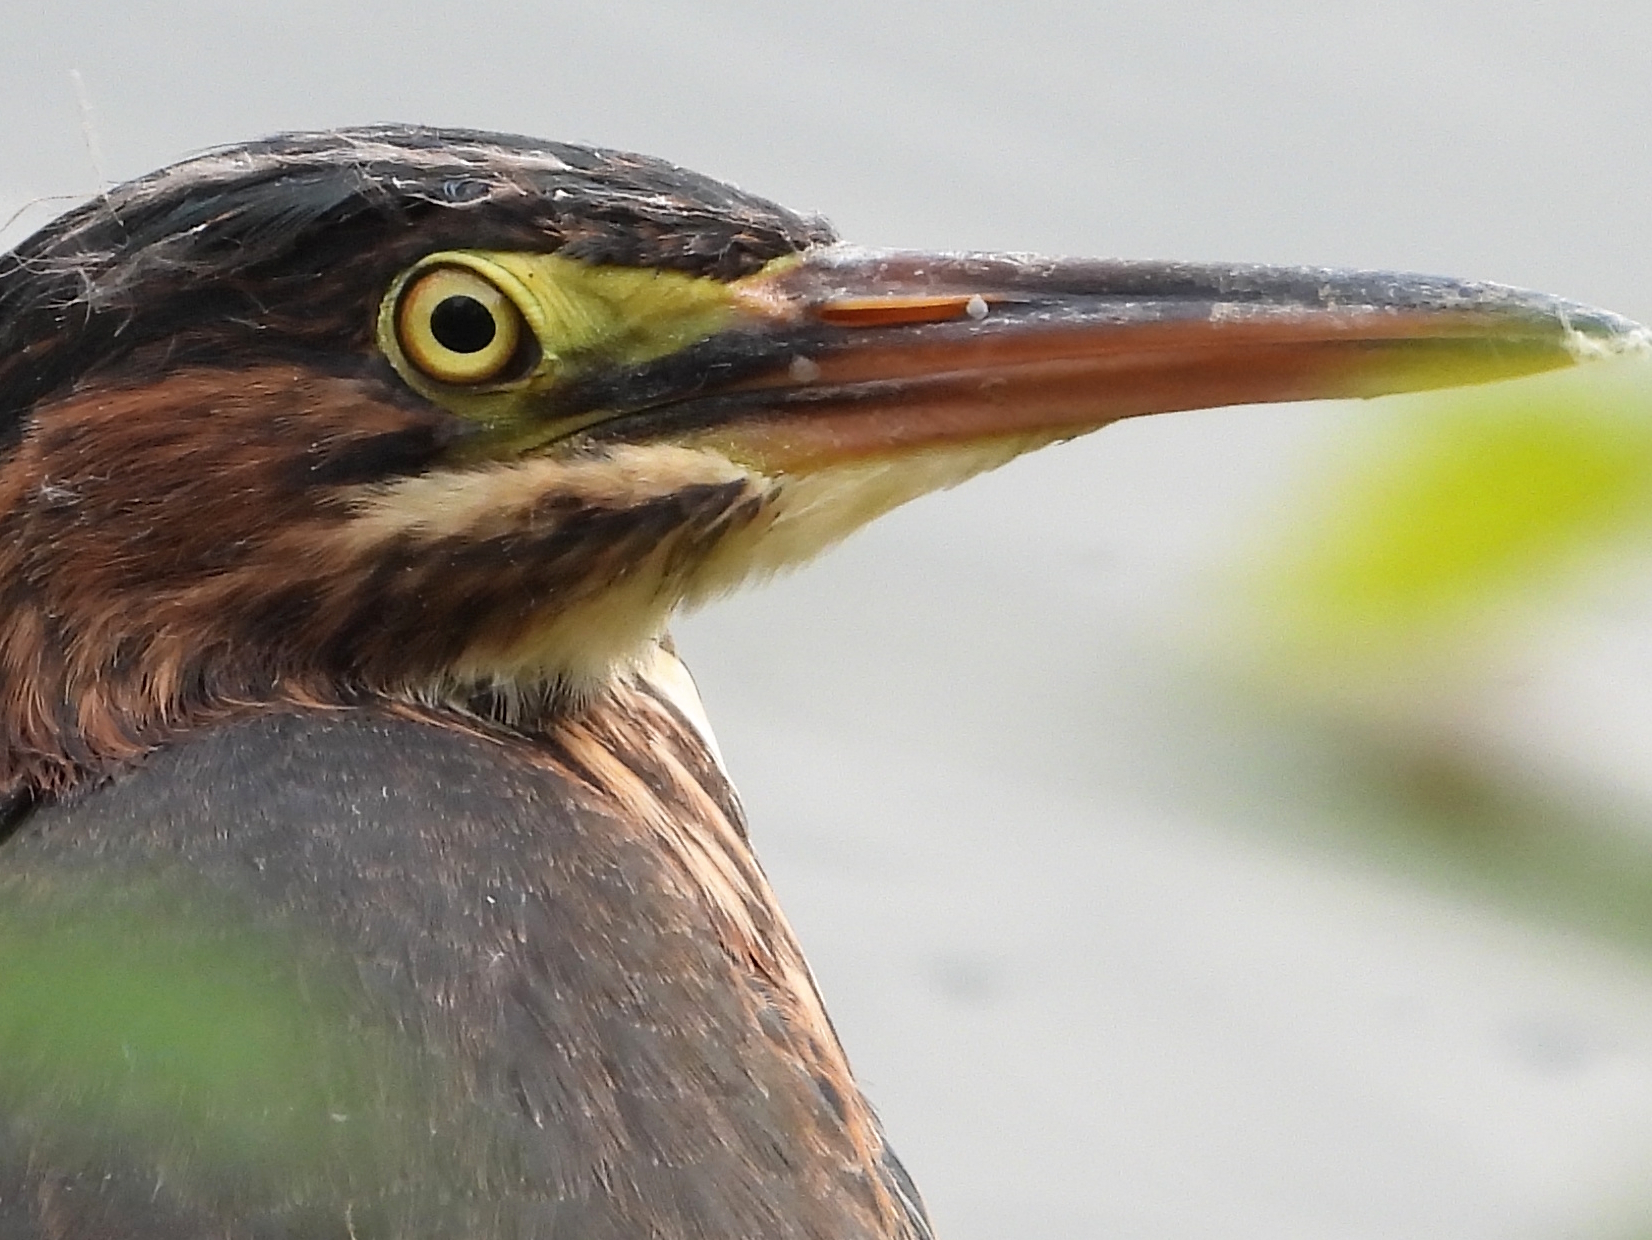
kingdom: Animalia
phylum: Chordata
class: Aves
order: Pelecaniformes
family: Ardeidae
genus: Butorides
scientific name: Butorides virescens
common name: Green heron
